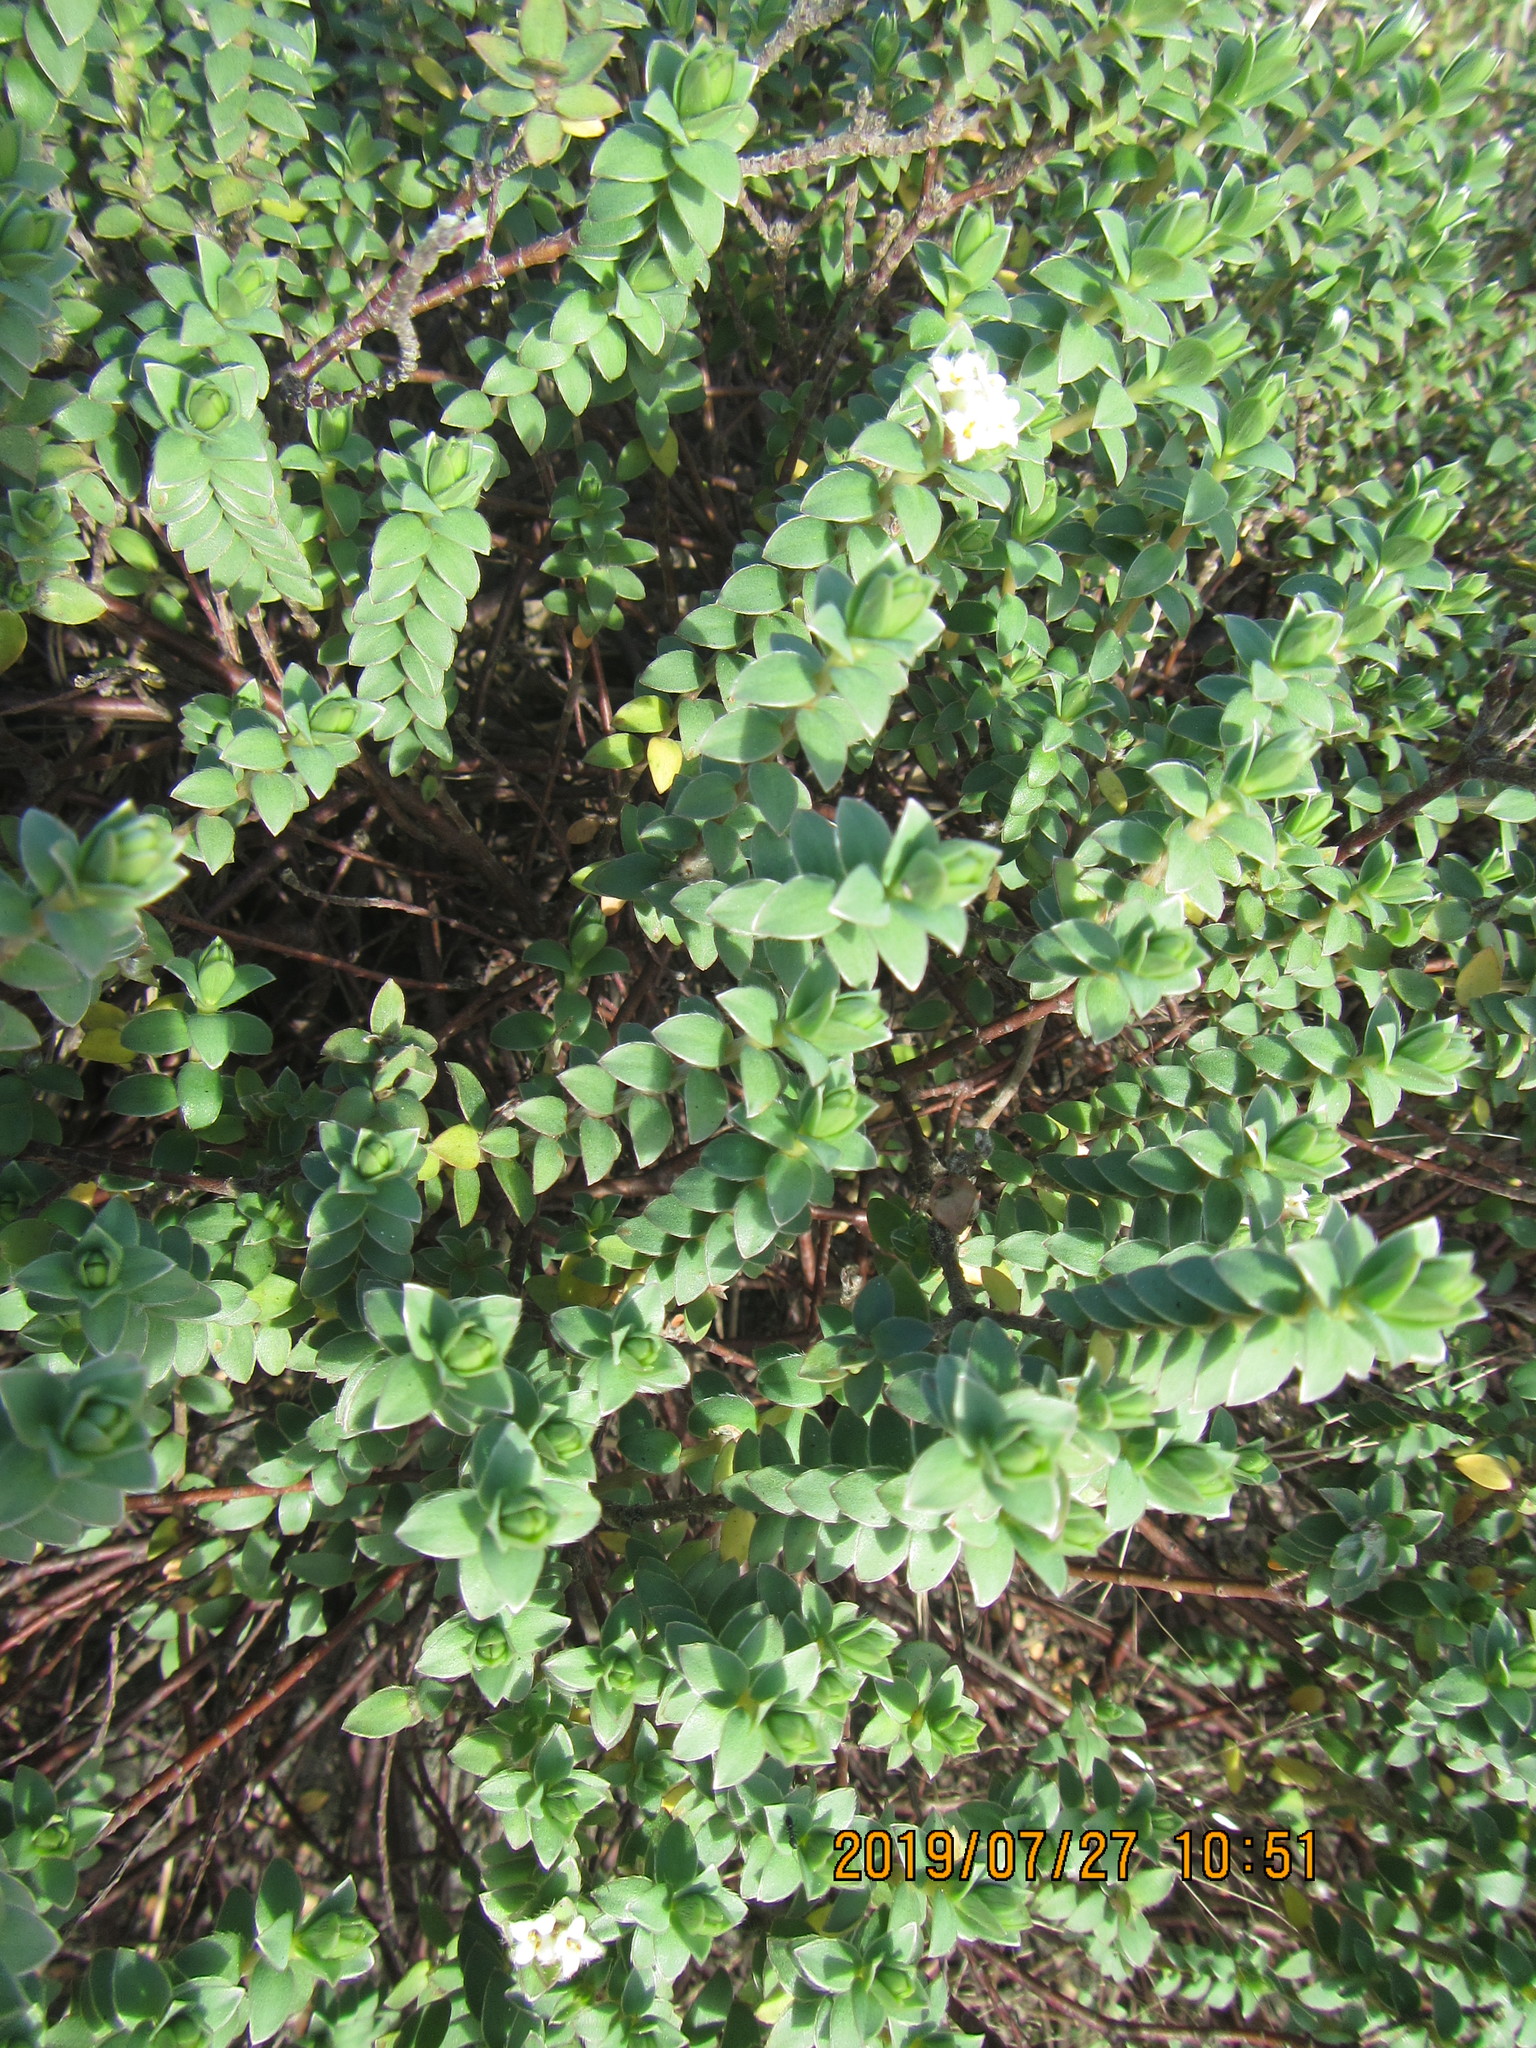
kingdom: Plantae
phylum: Tracheophyta
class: Magnoliopsida
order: Malvales
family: Thymelaeaceae
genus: Pimelea
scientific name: Pimelea villosa
